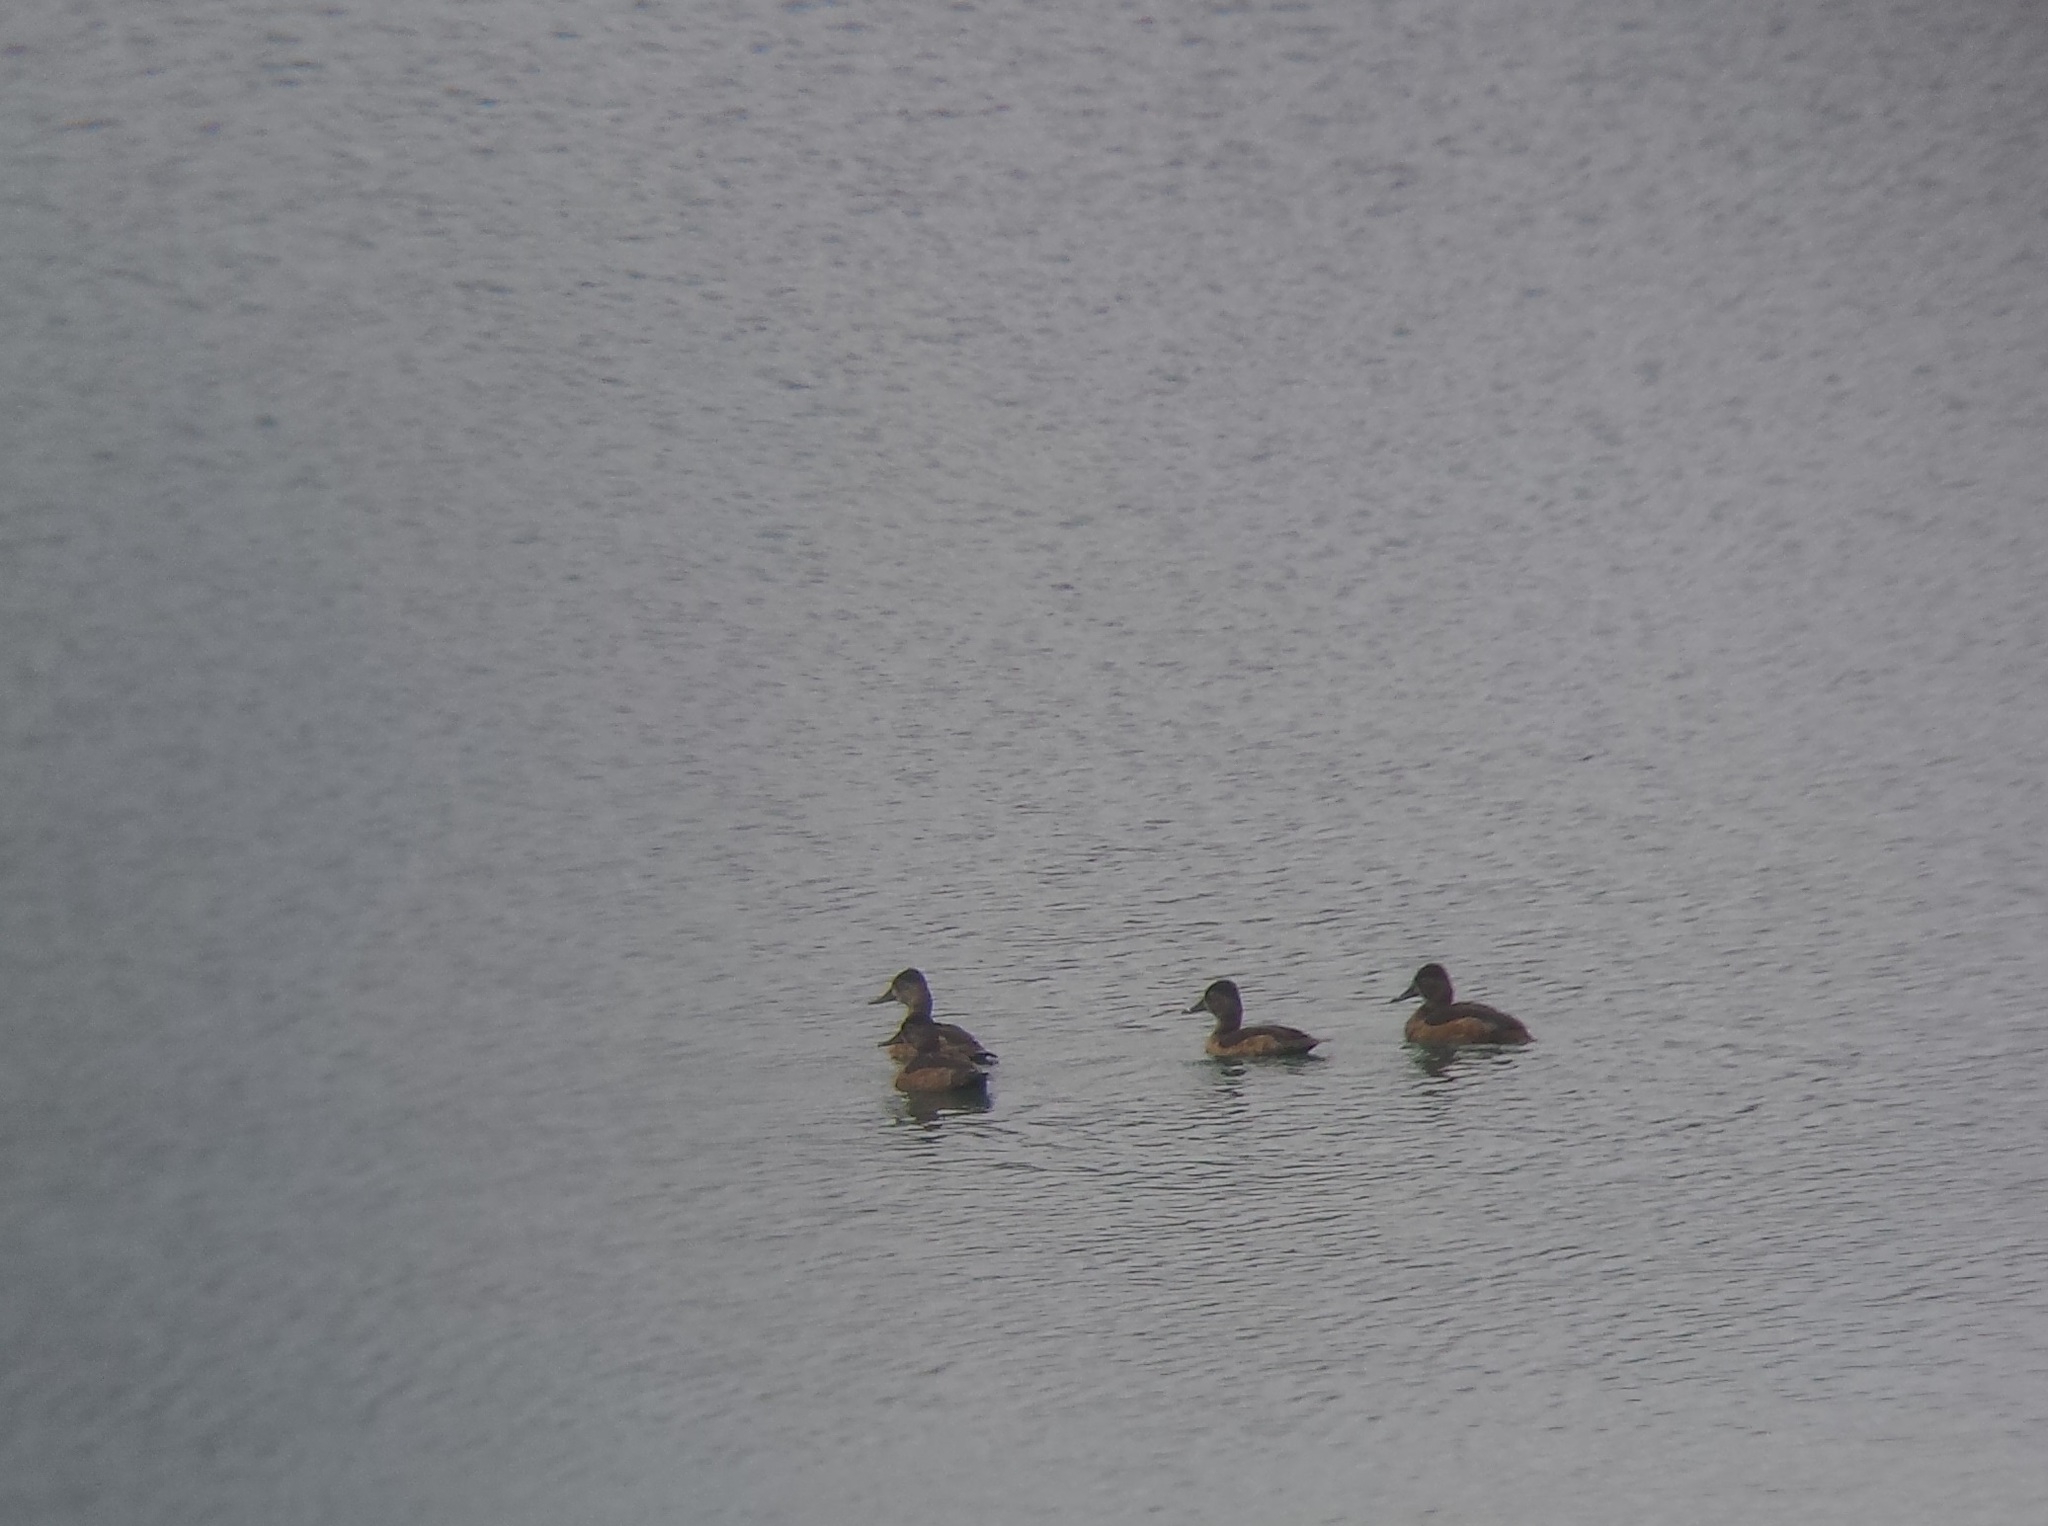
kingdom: Animalia
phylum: Chordata
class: Aves
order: Anseriformes
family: Anatidae
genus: Aythya
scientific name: Aythya collaris
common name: Ring-necked duck
